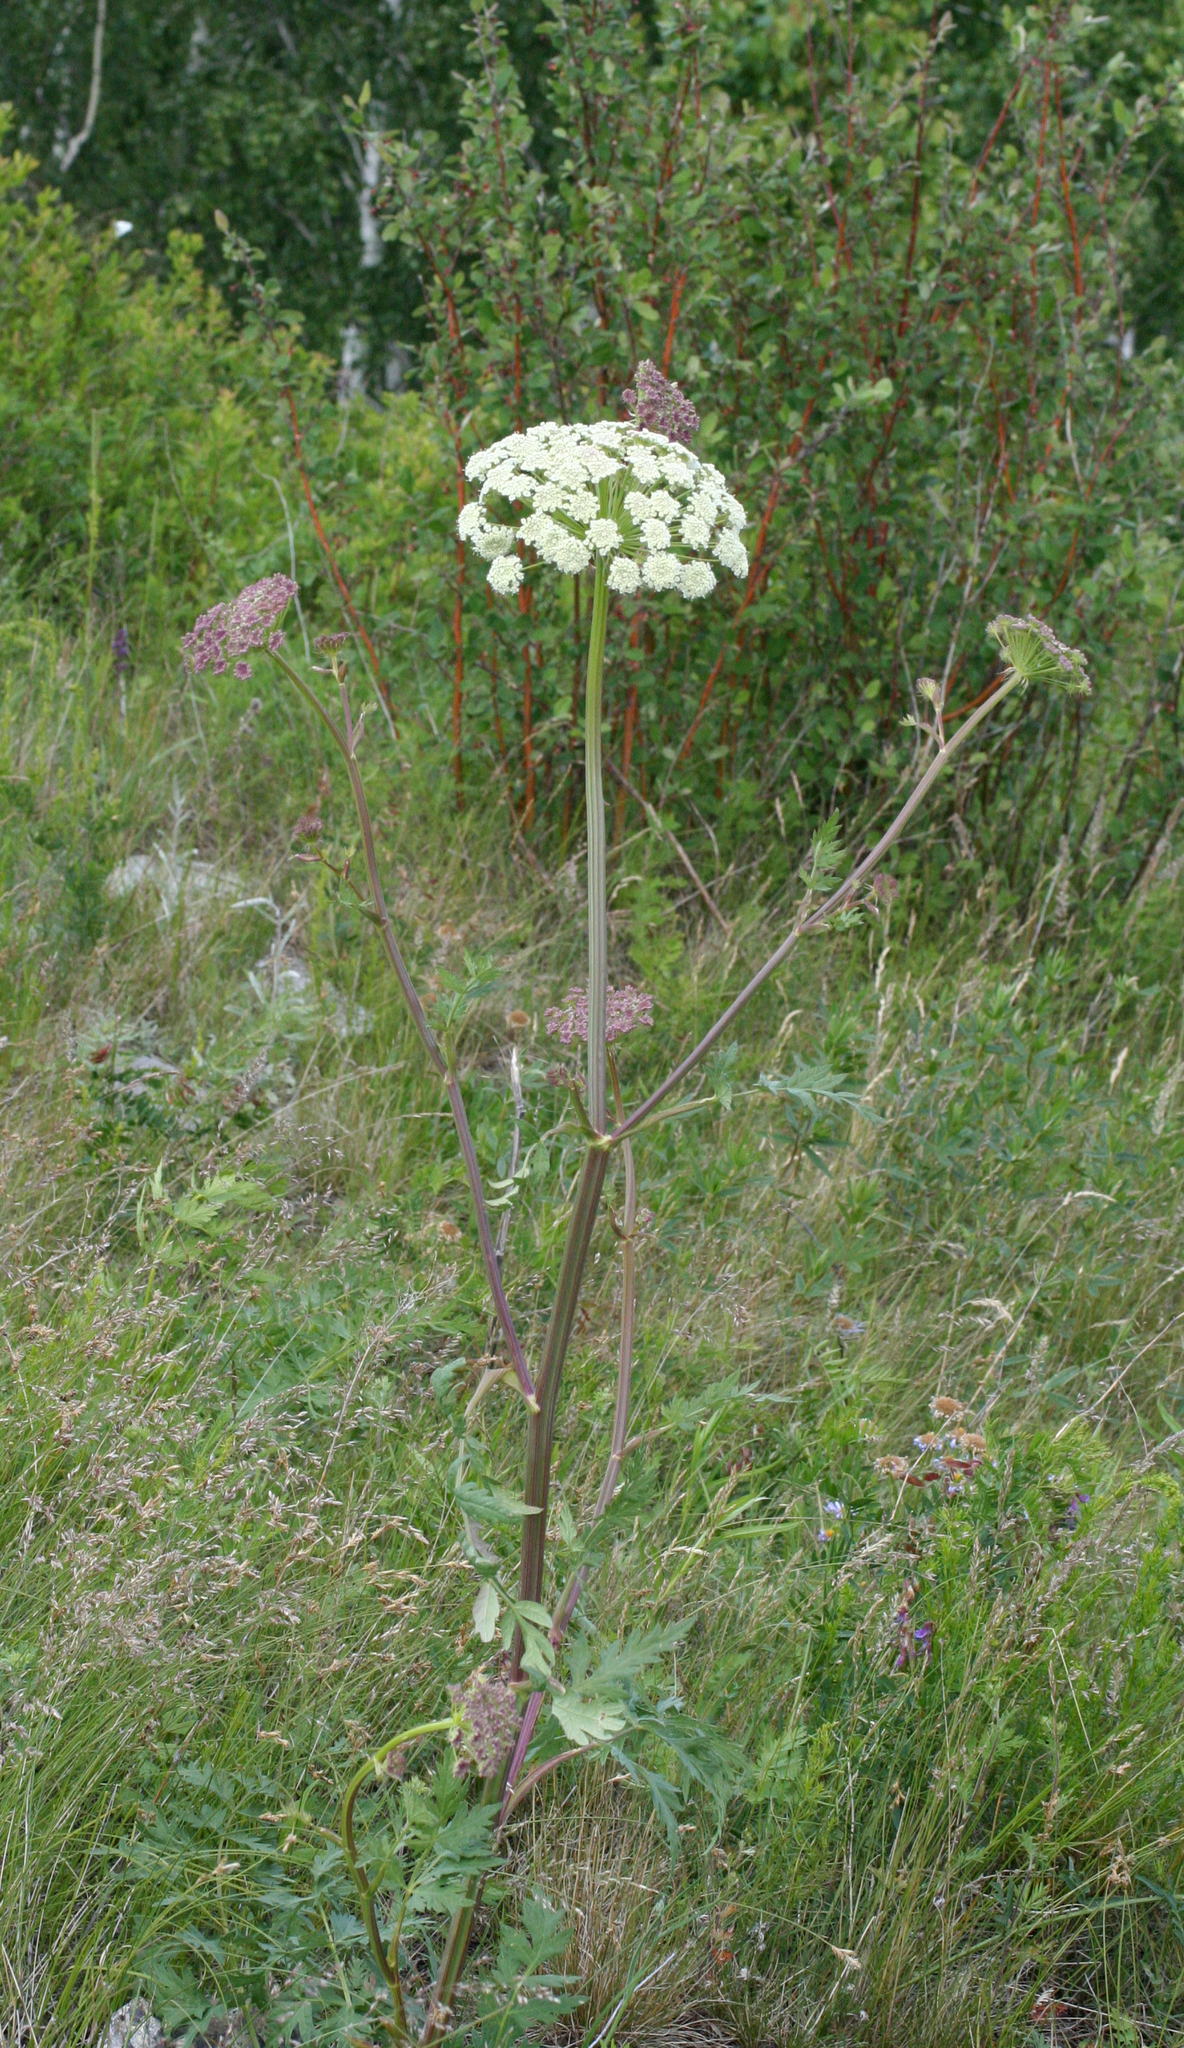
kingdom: Plantae
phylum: Tracheophyta
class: Magnoliopsida
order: Apiales
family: Apiaceae
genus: Seseli
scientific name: Seseli libanotis
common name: Mooncarrot
